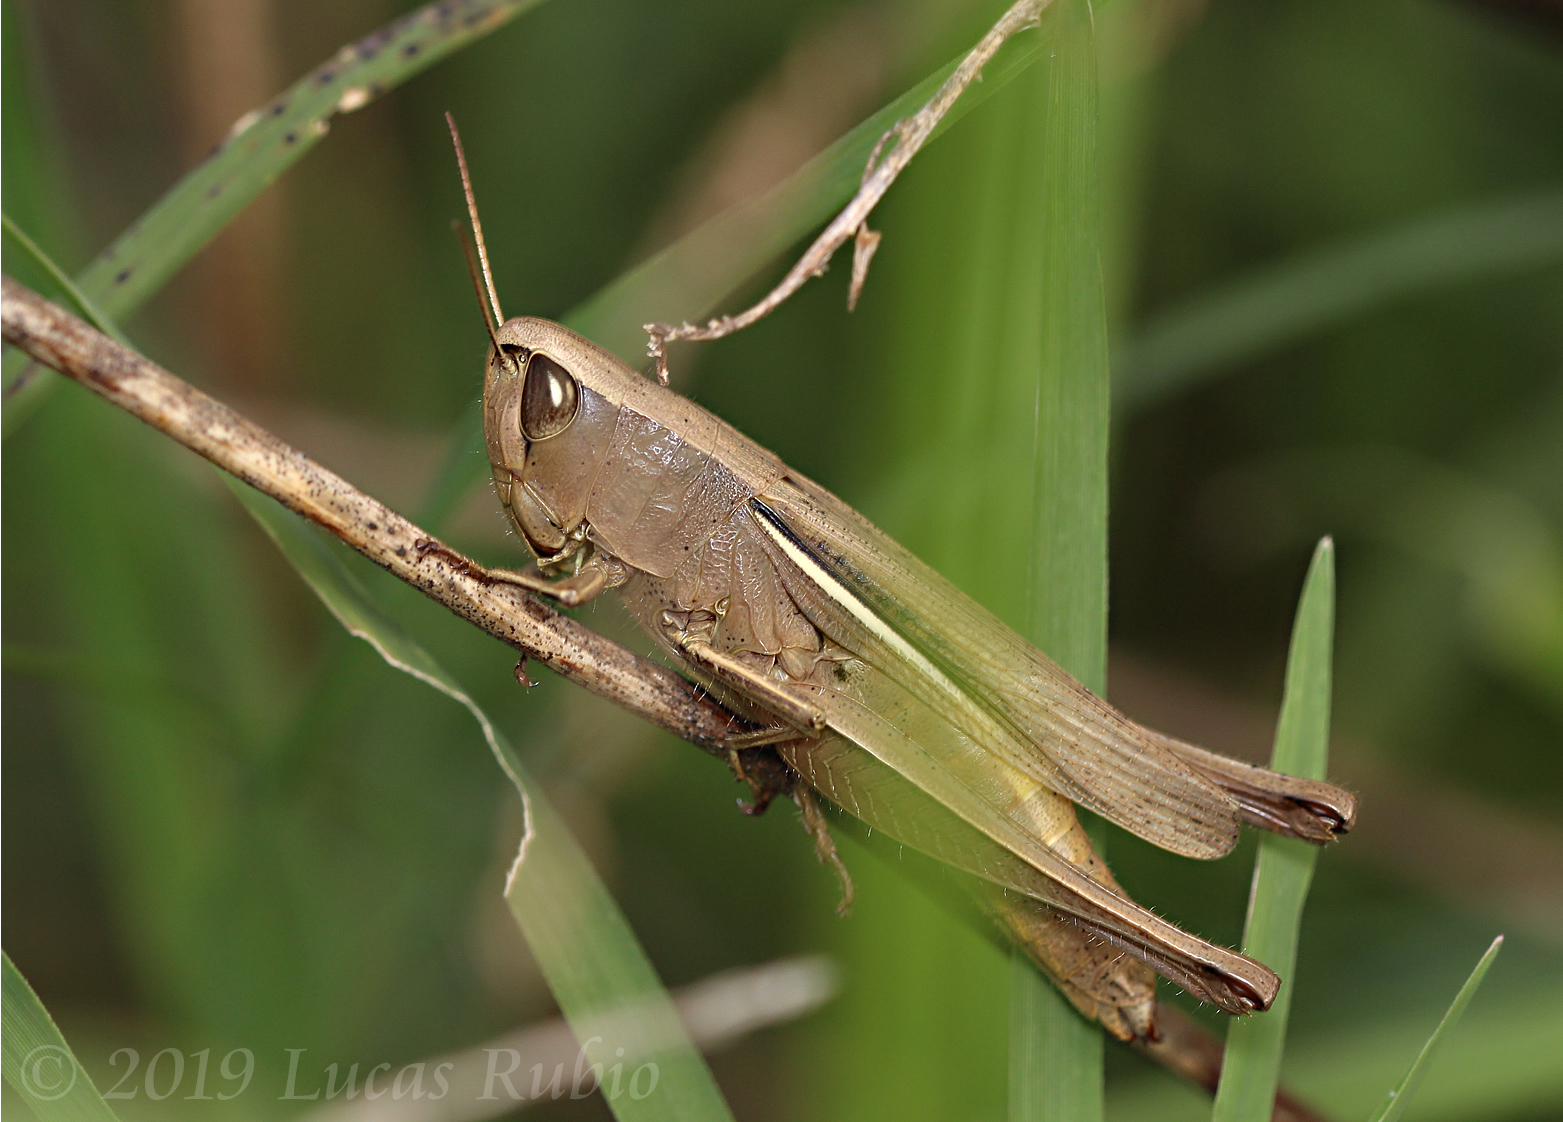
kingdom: Animalia
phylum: Arthropoda
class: Insecta
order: Orthoptera
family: Acrididae
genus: Amblytropidia
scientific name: Amblytropidia australis
